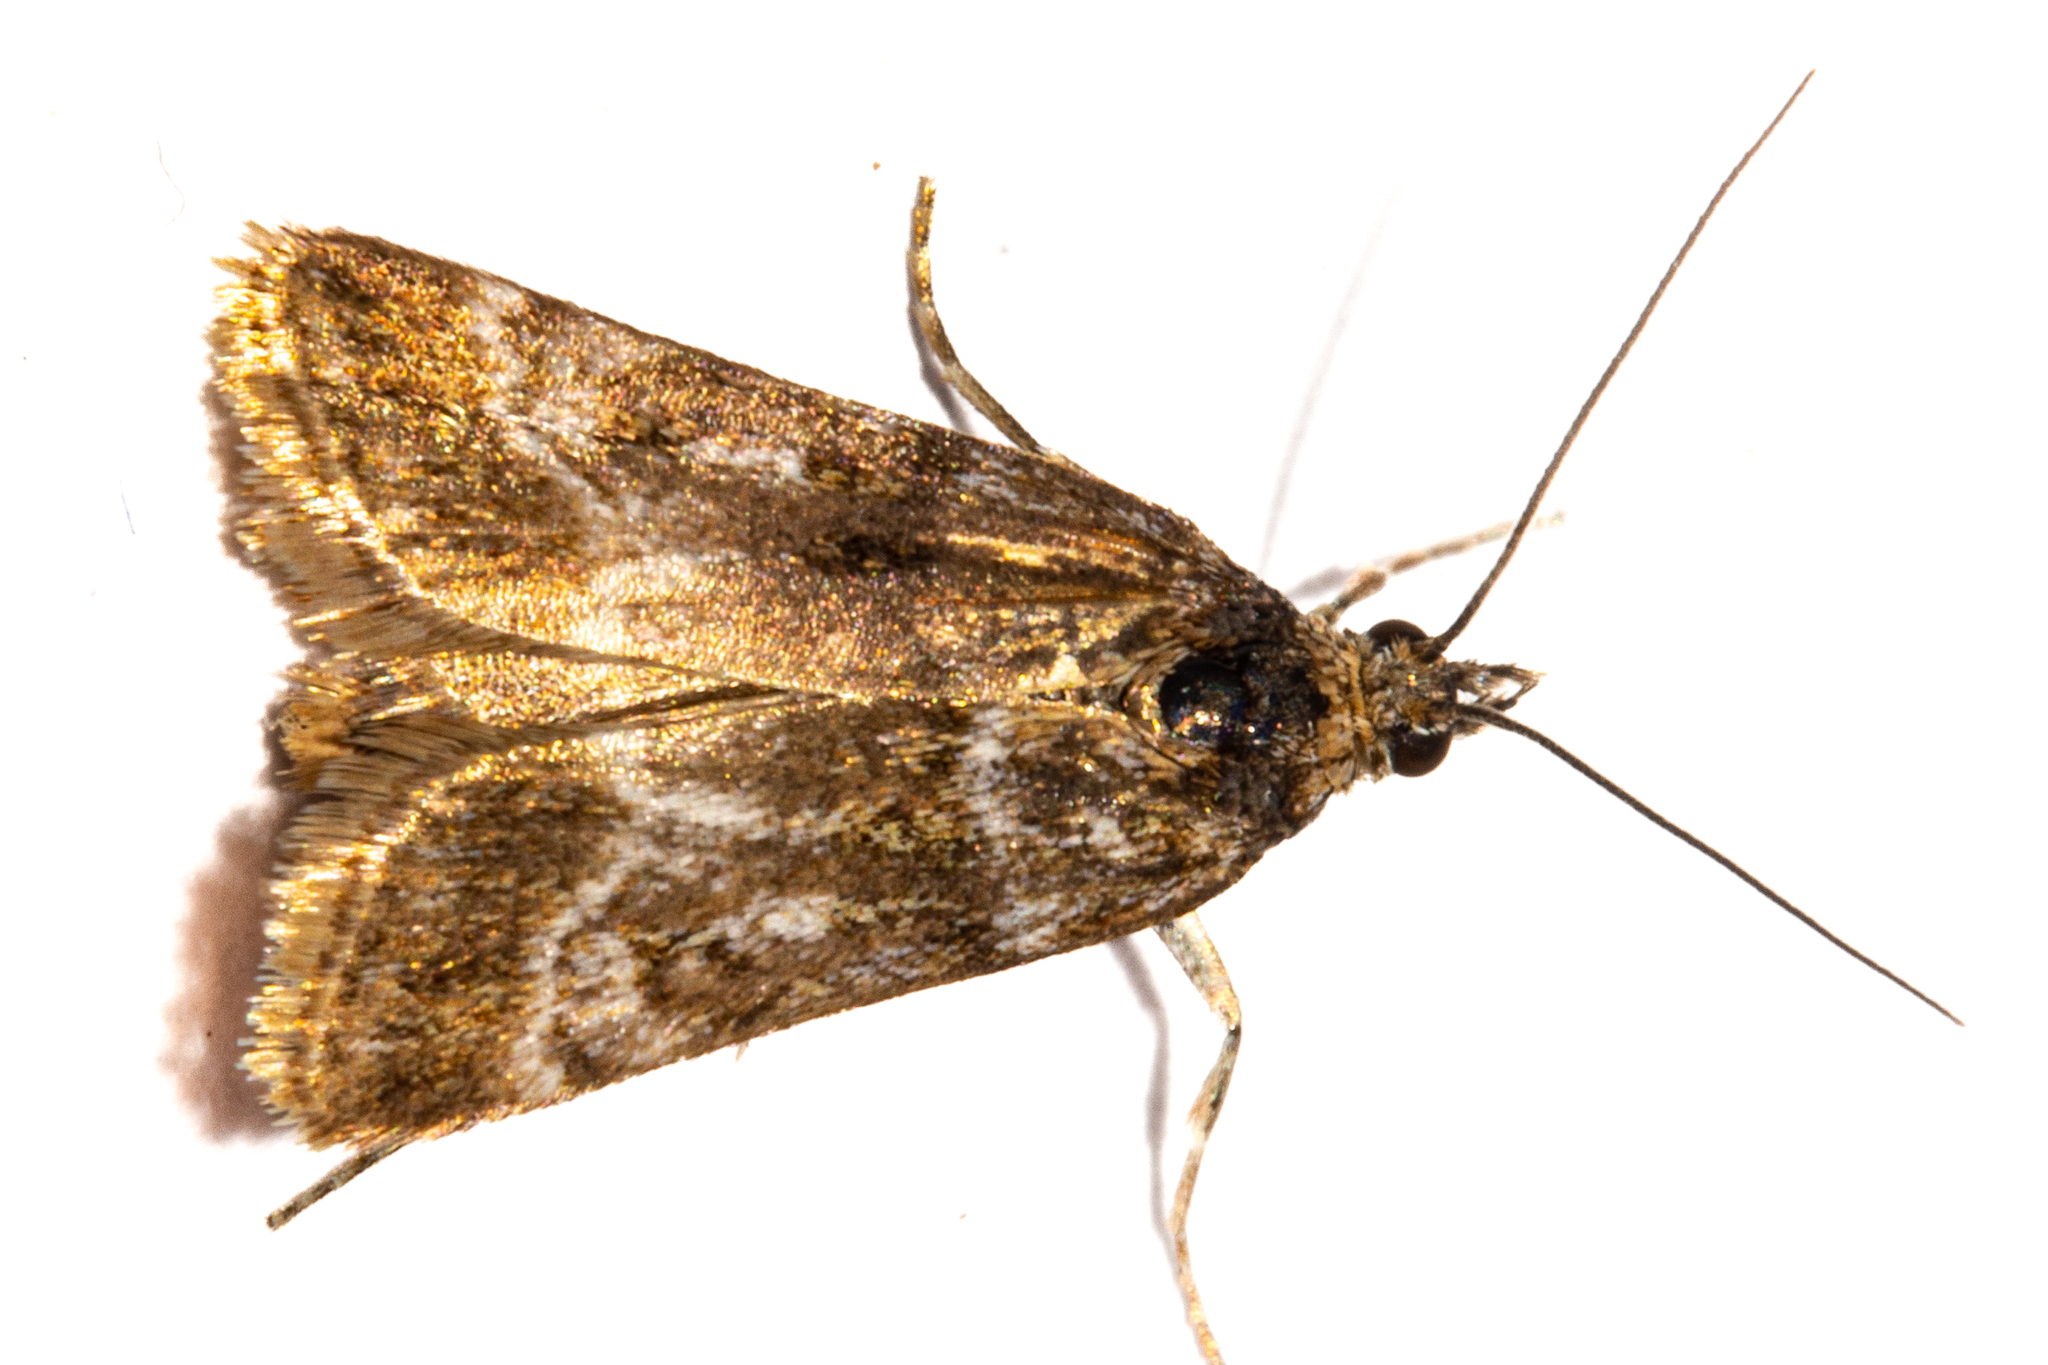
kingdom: Animalia
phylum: Arthropoda
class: Insecta
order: Lepidoptera
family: Crambidae
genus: Scoparia
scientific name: Scoparia pascoella
